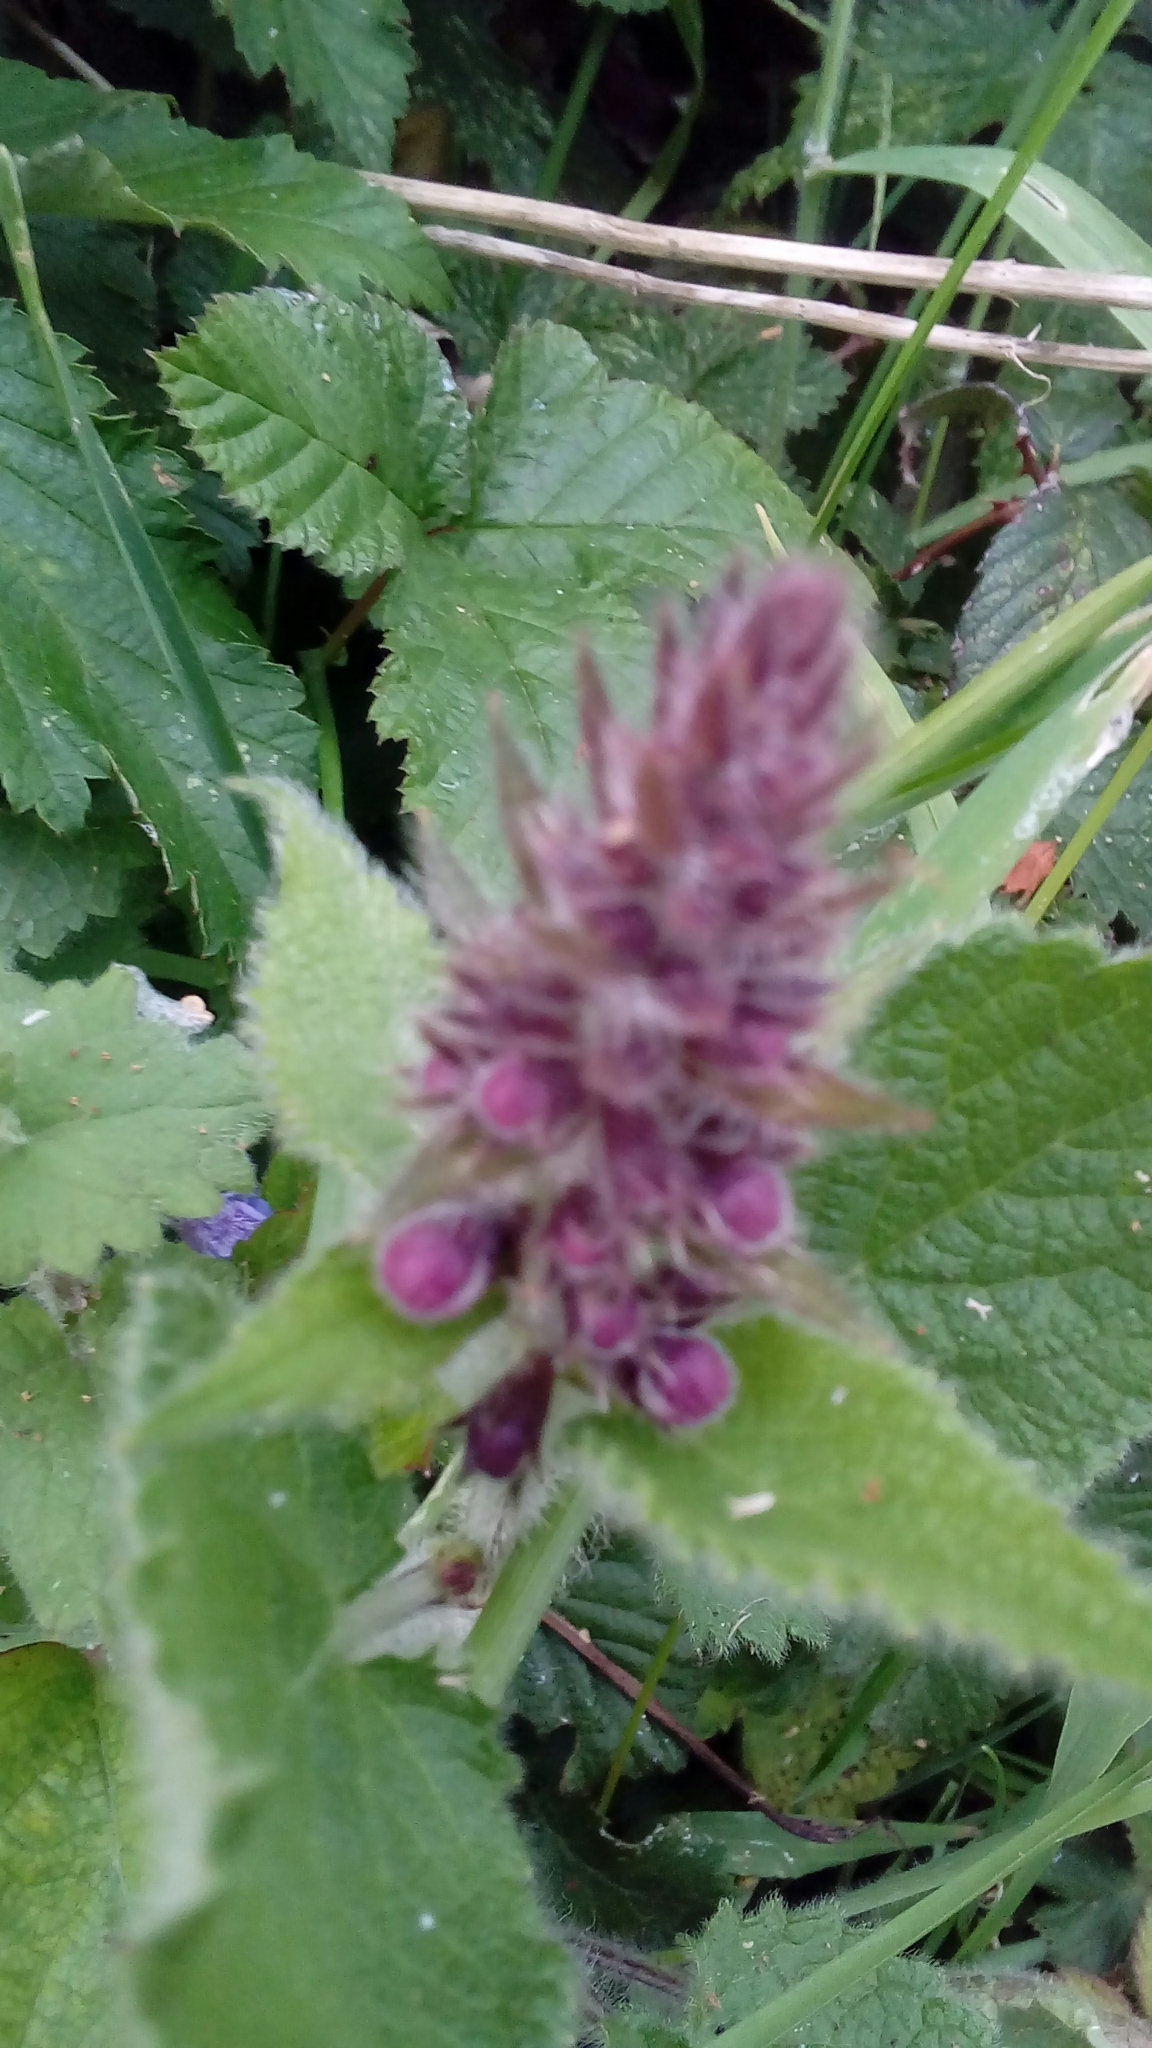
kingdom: Plantae
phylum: Tracheophyta
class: Magnoliopsida
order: Lamiales
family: Lamiaceae
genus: Stachys
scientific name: Stachys sylvatica
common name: Hedge woundwort
